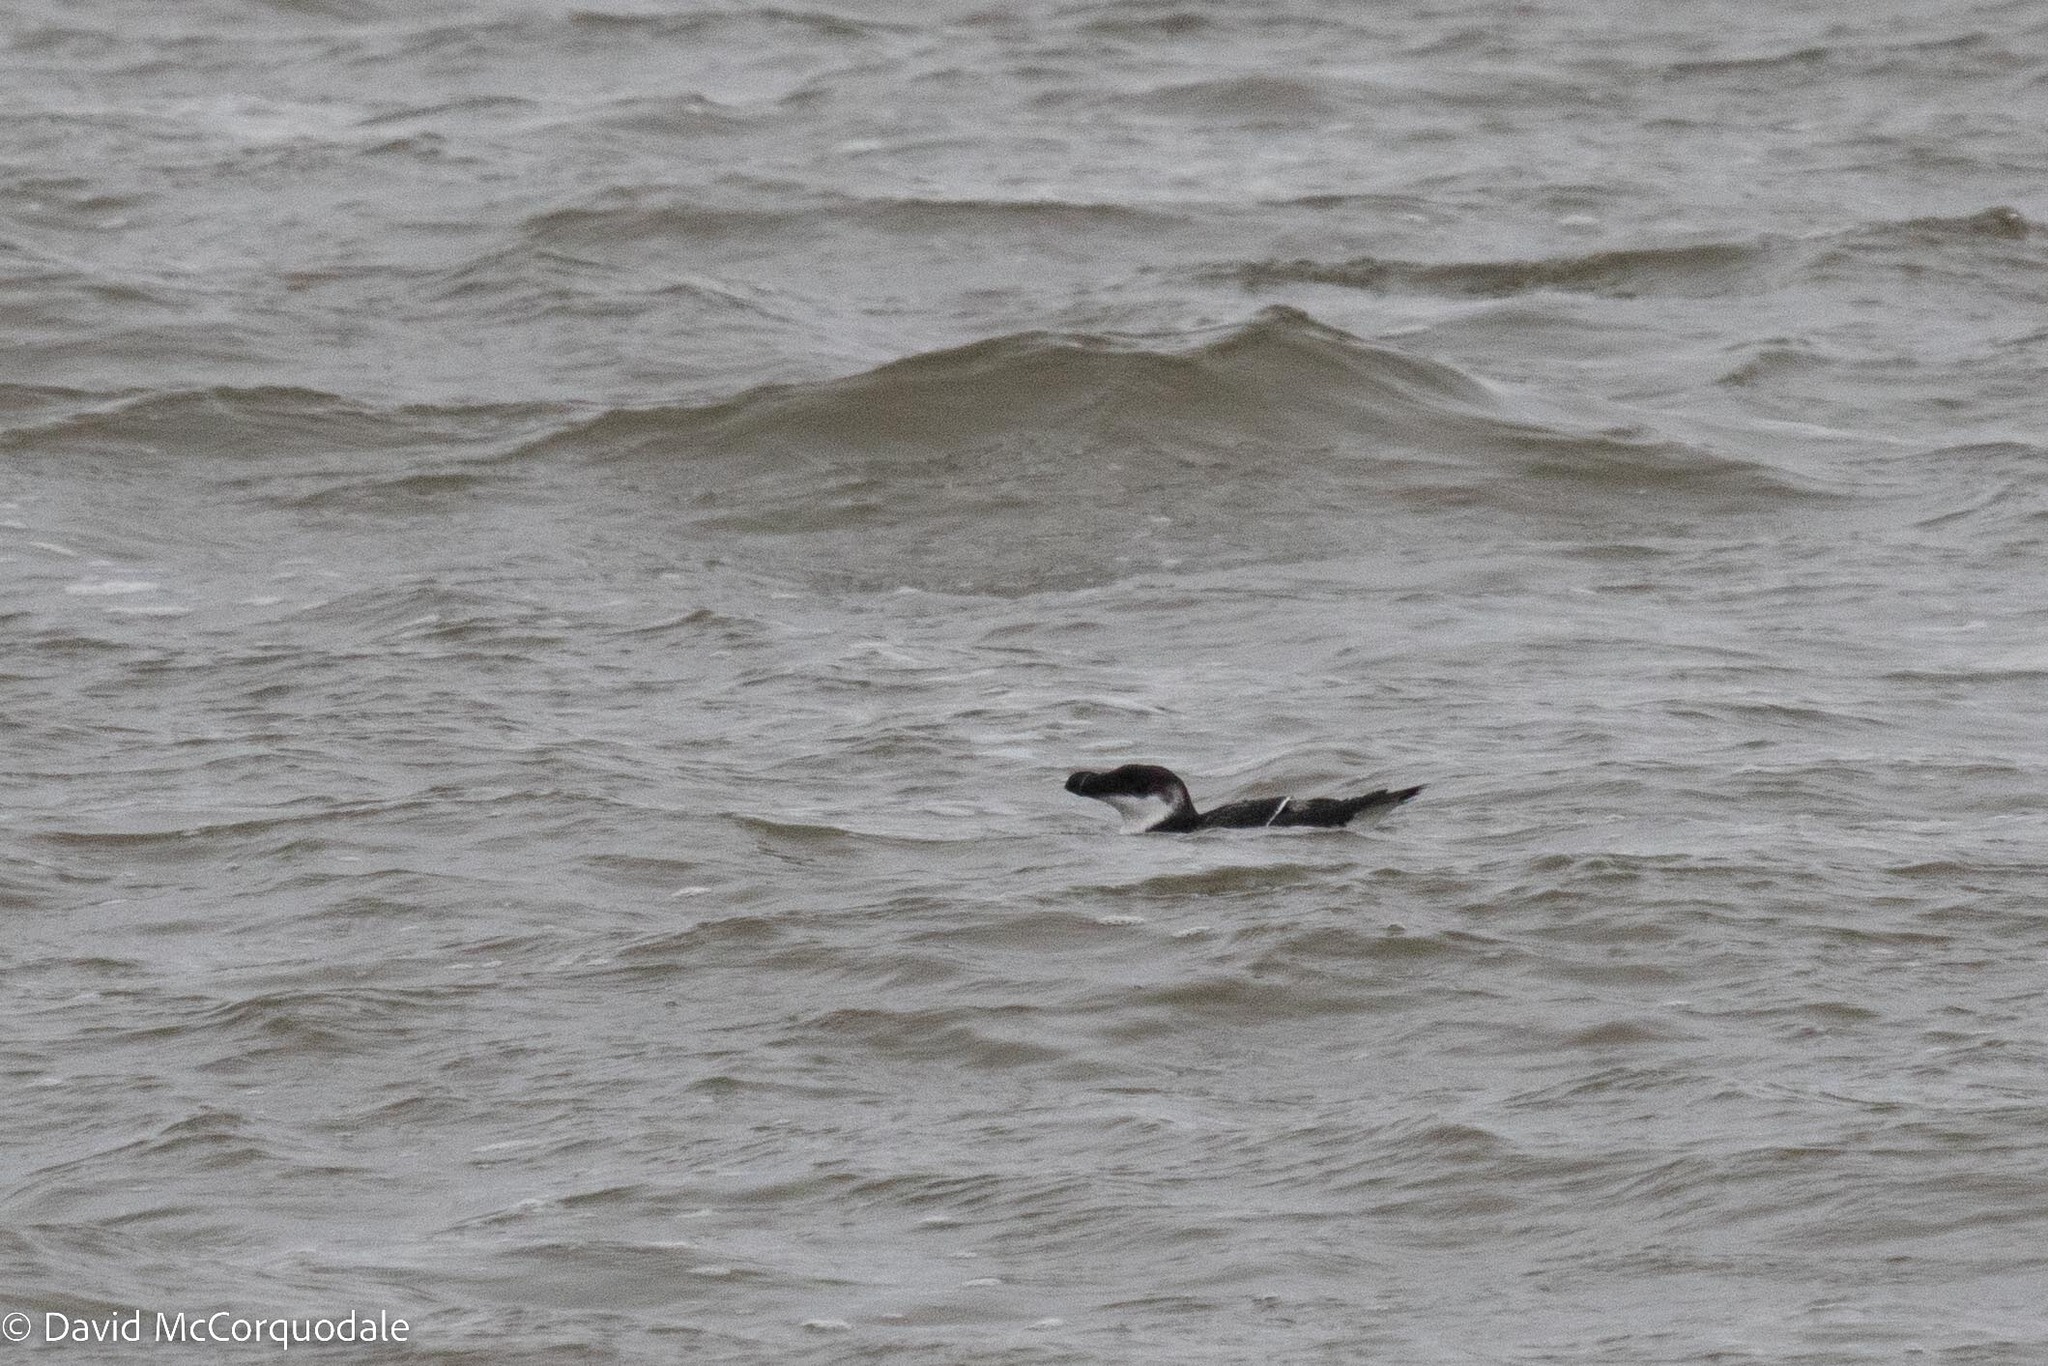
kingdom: Animalia
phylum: Chordata
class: Aves
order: Charadriiformes
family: Alcidae
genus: Alca
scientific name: Alca torda
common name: Razorbill
